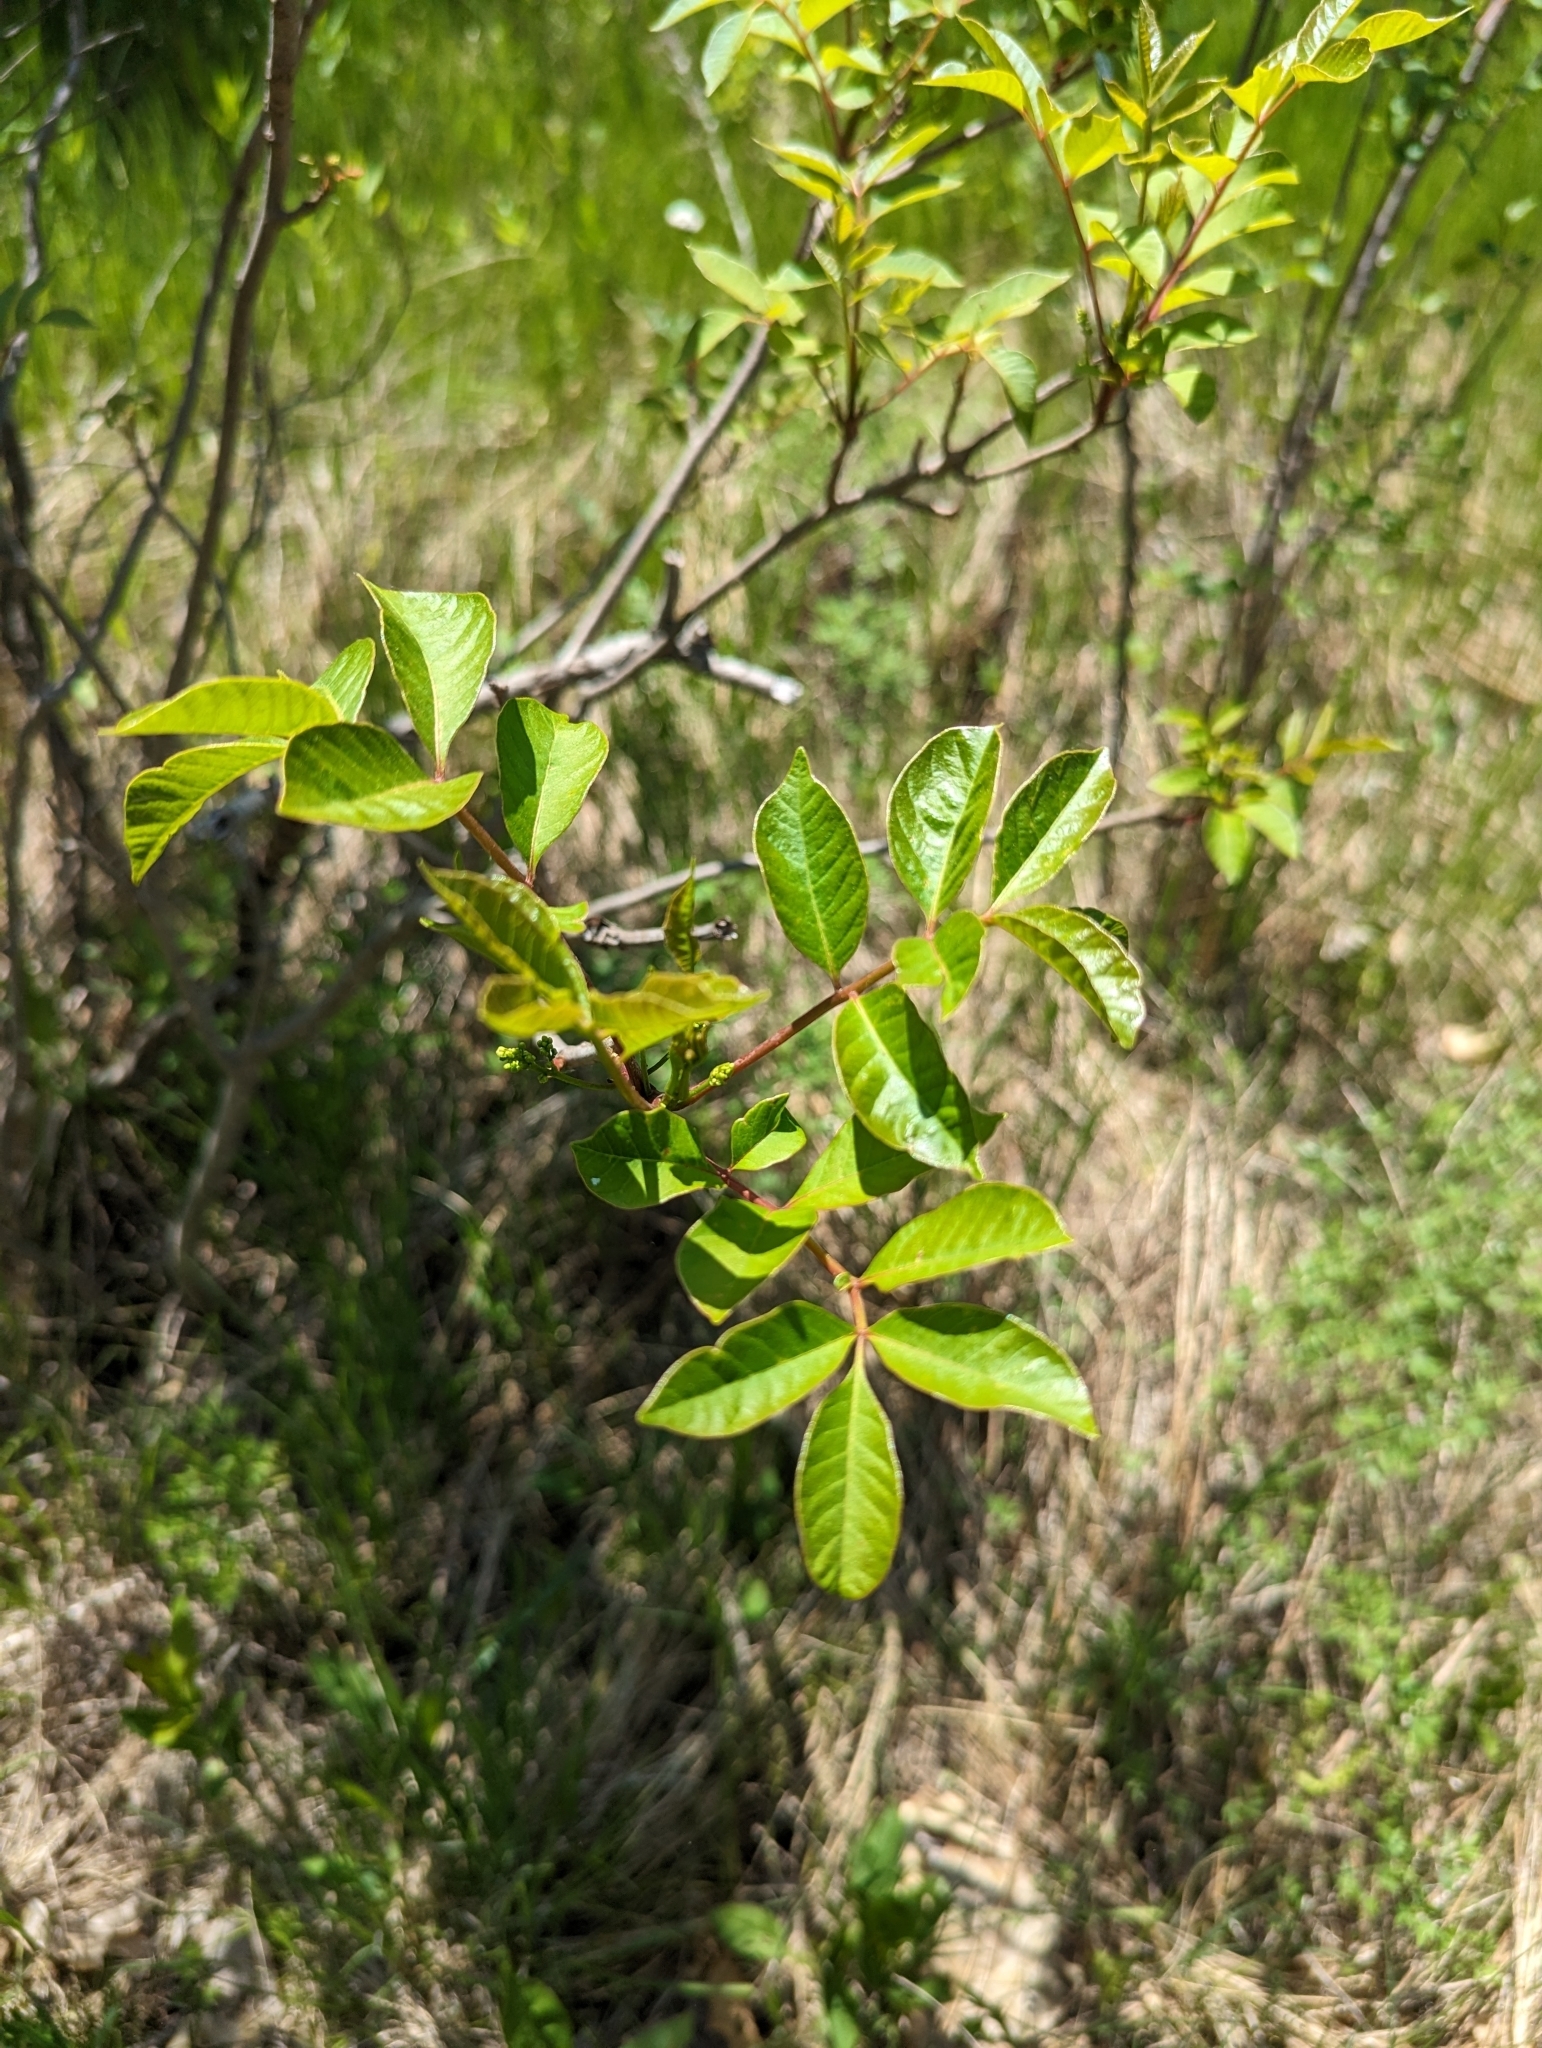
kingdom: Plantae
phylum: Tracheophyta
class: Magnoliopsida
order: Sapindales
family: Anacardiaceae
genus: Toxicodendron
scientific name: Toxicodendron vernix
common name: Poison sumac
